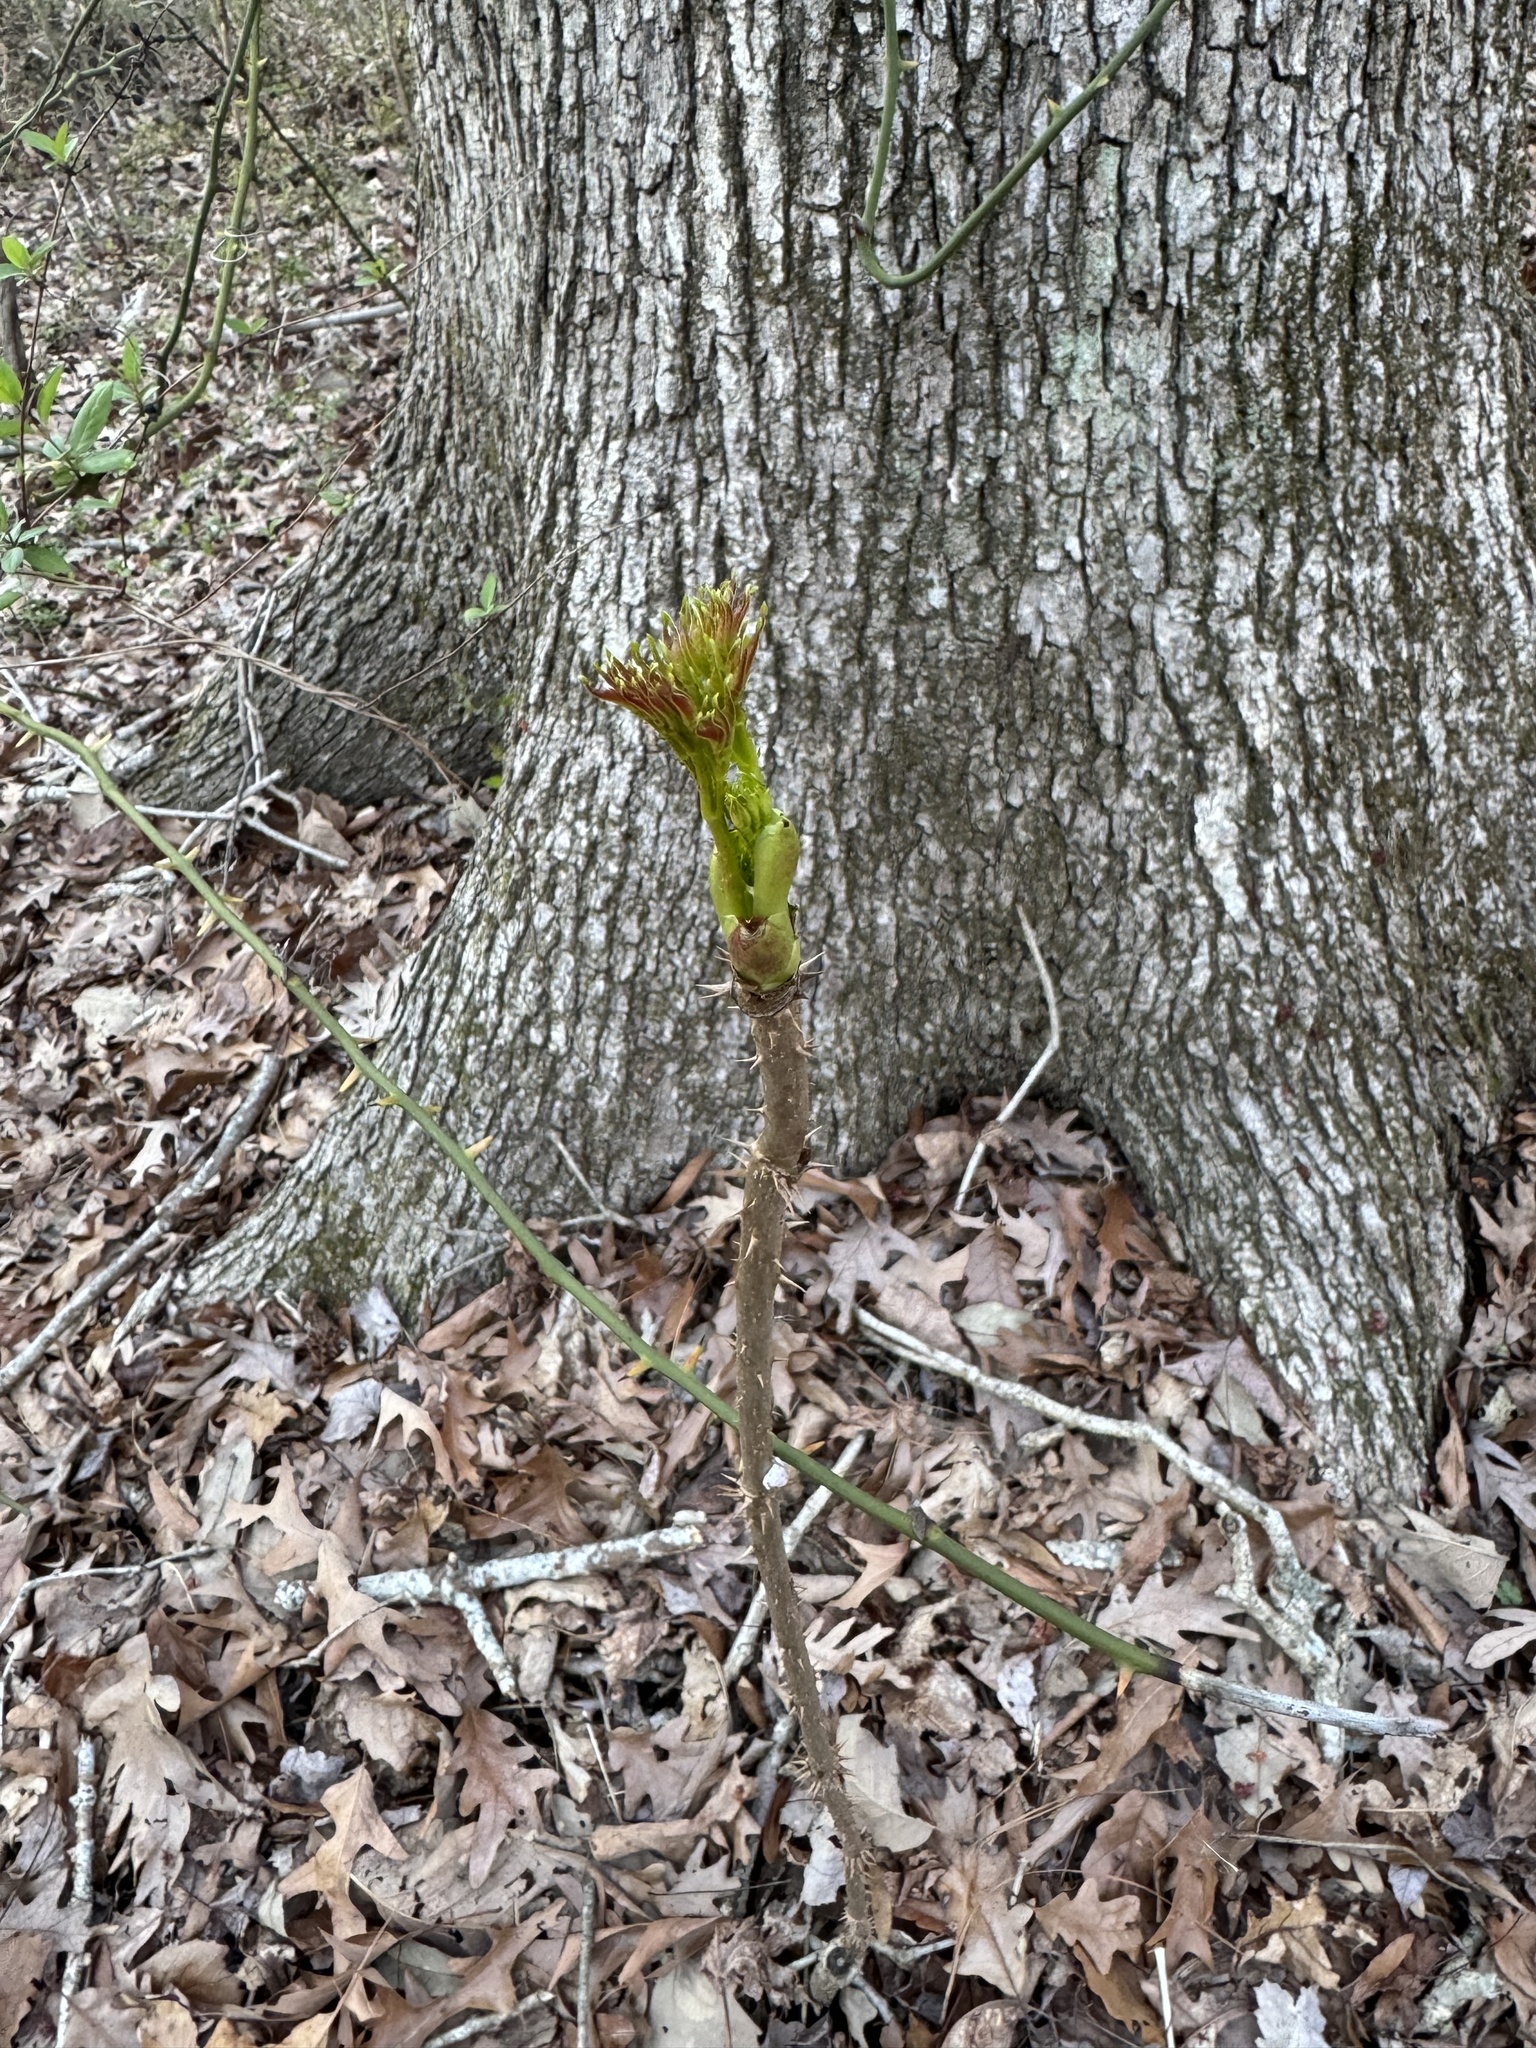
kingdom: Plantae
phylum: Tracheophyta
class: Magnoliopsida
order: Apiales
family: Araliaceae
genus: Aralia
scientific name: Aralia spinosa
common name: Hercules'-club
